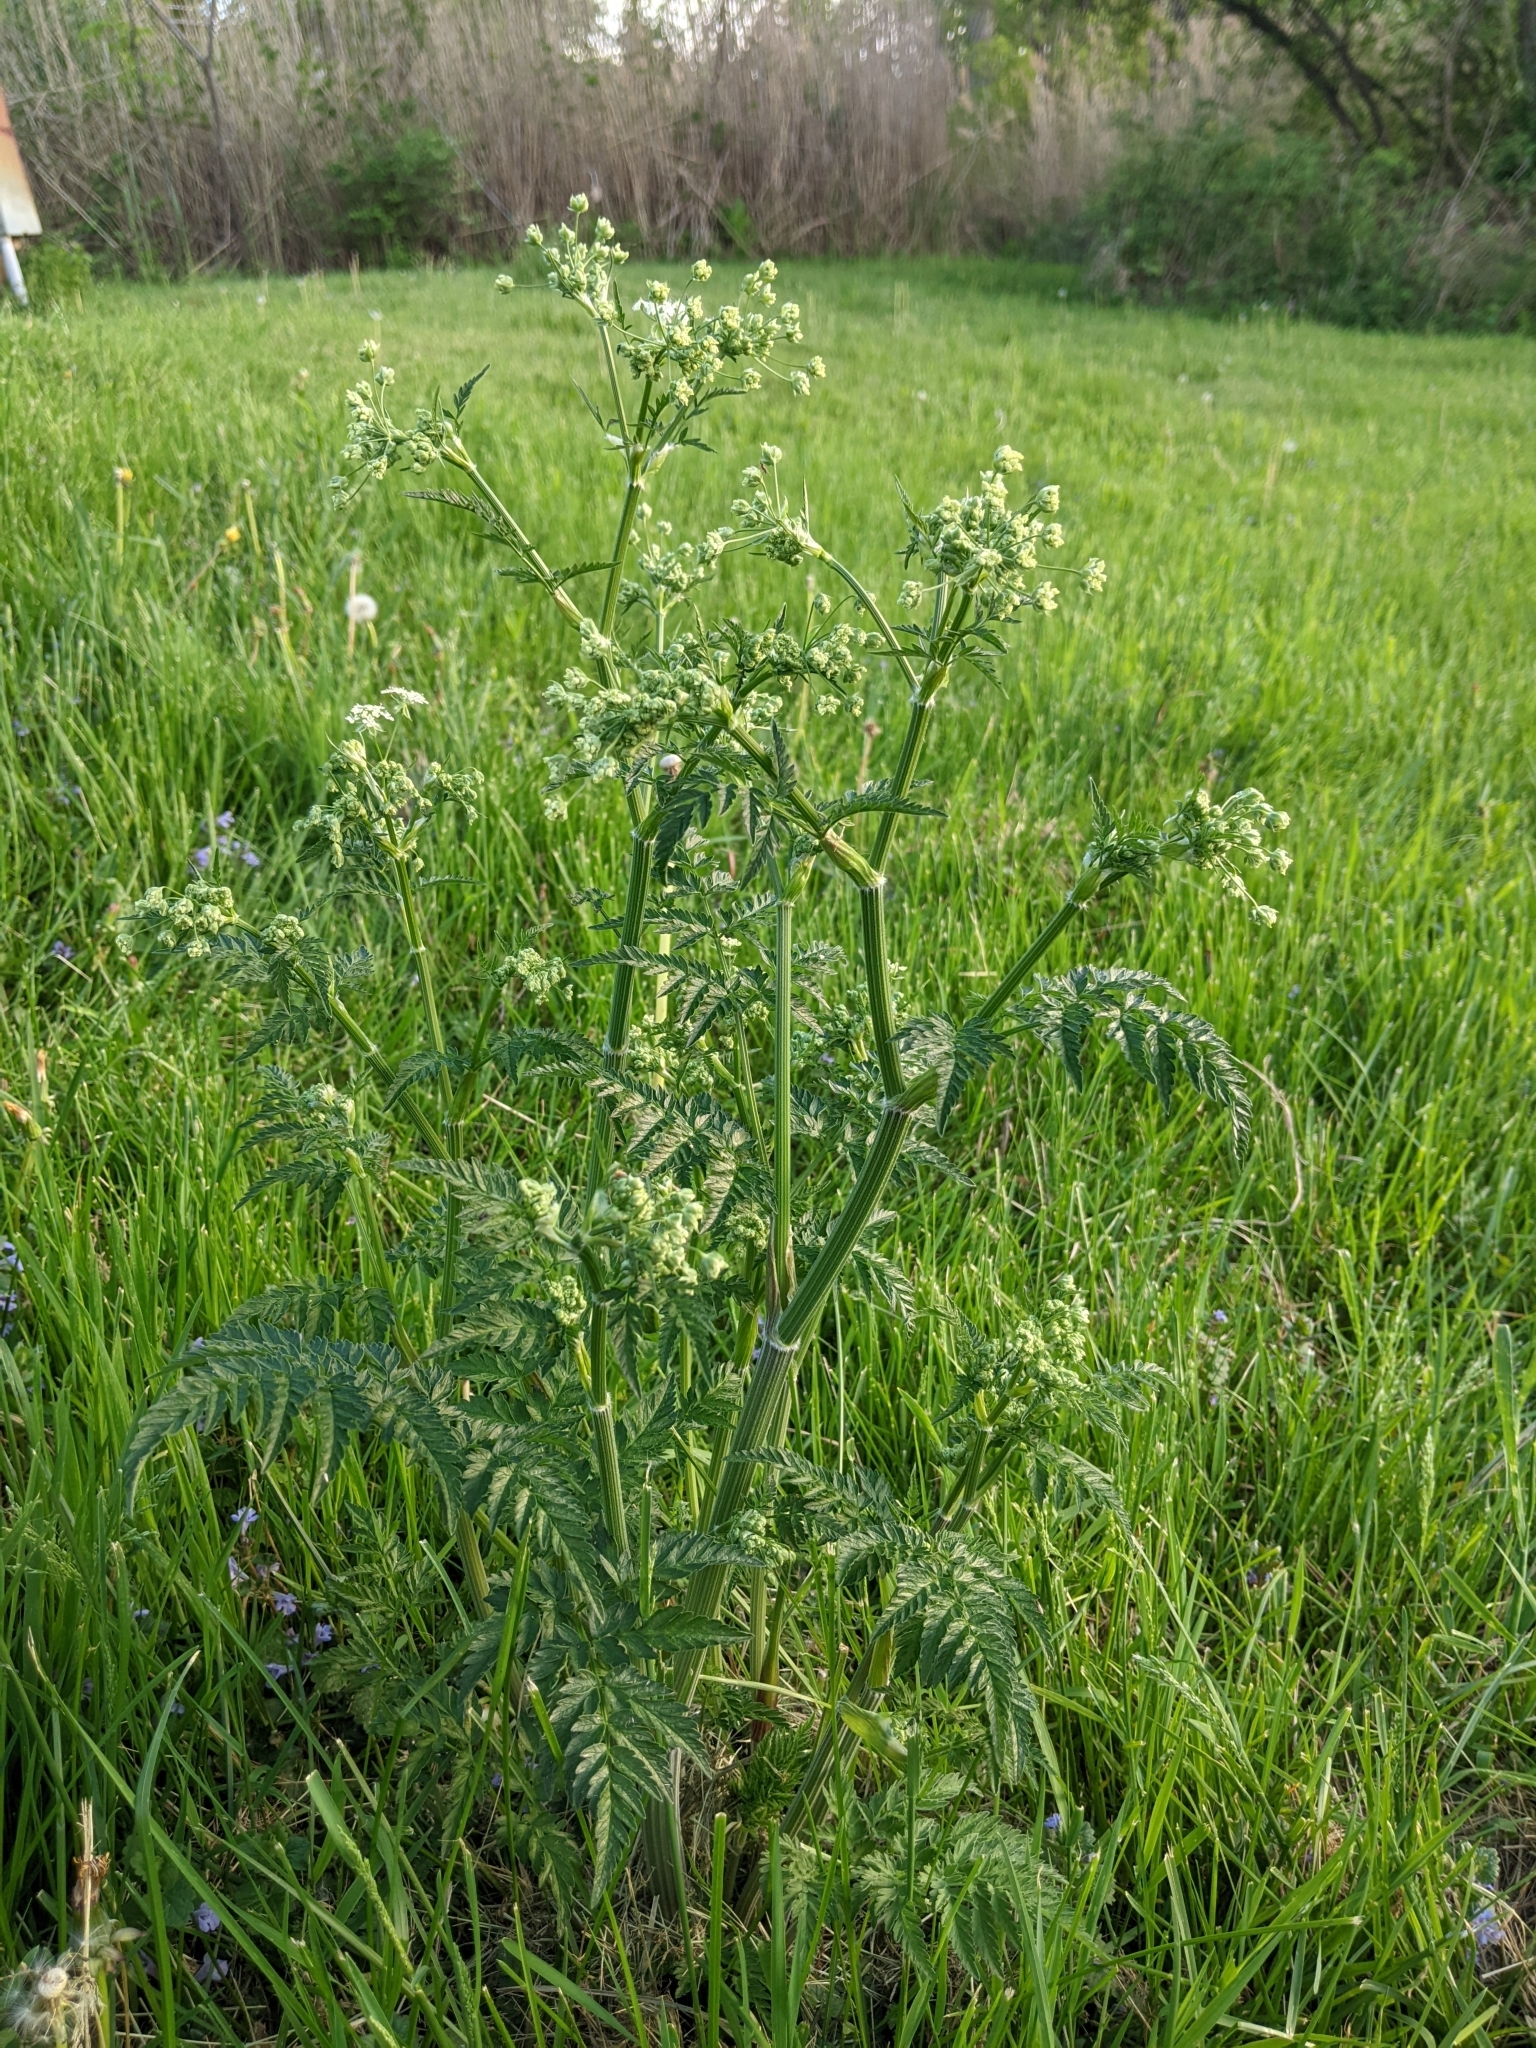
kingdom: Plantae
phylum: Tracheophyta
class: Magnoliopsida
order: Apiales
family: Apiaceae
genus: Anthriscus
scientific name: Anthriscus sylvestris
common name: Cow parsley
